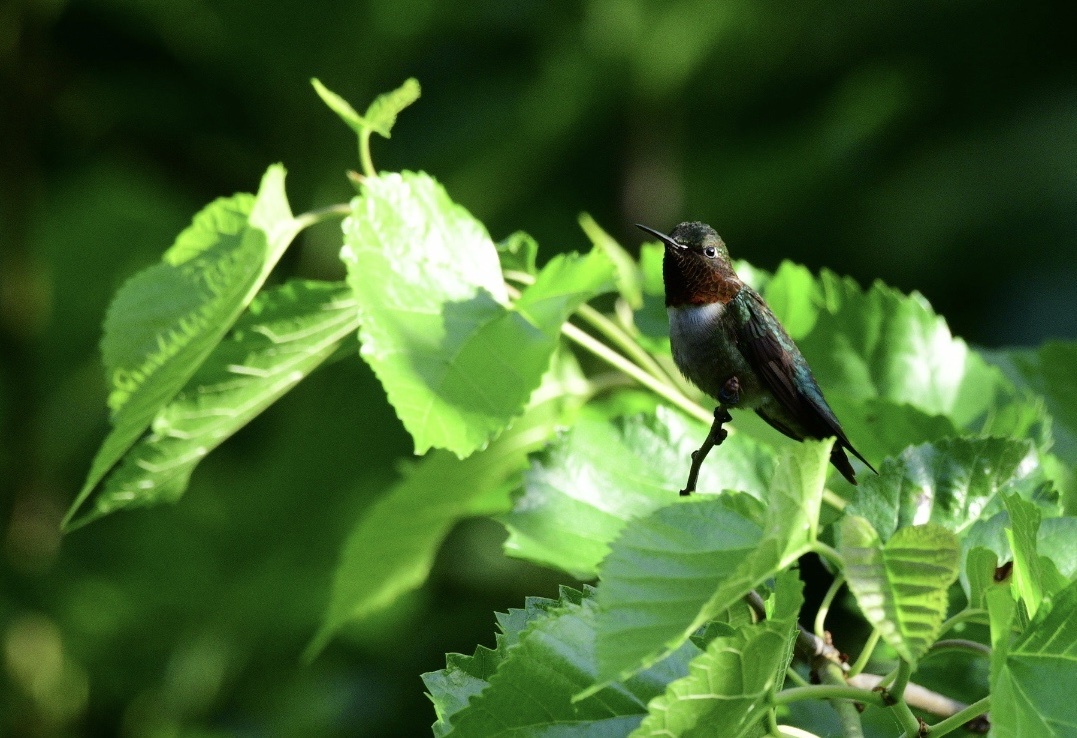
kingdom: Animalia
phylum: Chordata
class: Aves
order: Apodiformes
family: Trochilidae
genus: Archilochus
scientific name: Archilochus colubris
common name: Ruby-throated hummingbird
